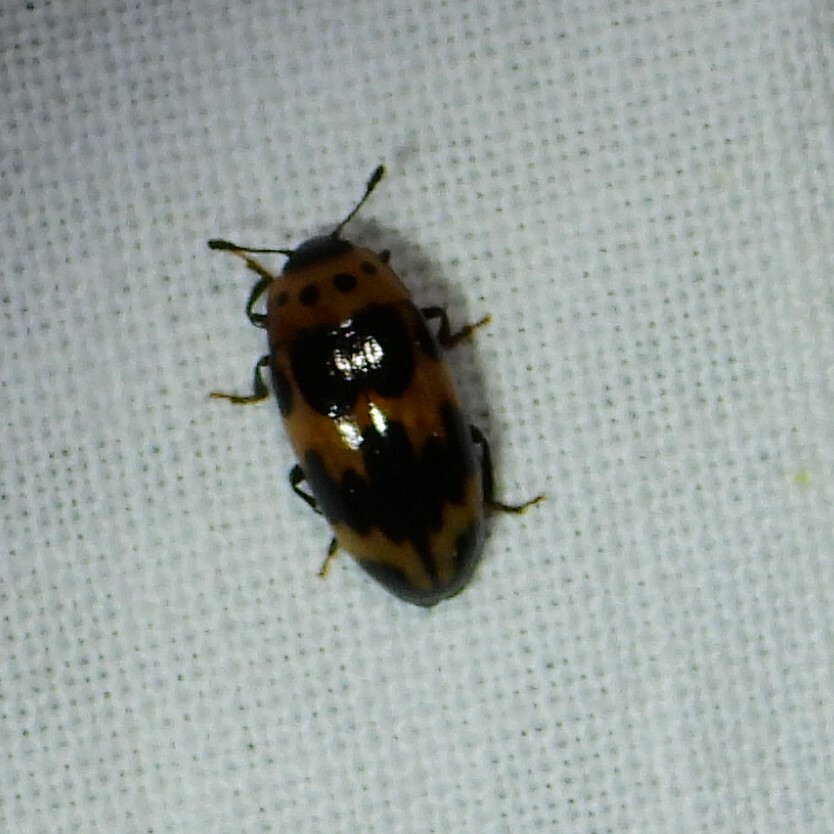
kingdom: Animalia
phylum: Arthropoda
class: Insecta
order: Coleoptera
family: Erotylidae
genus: Ischyrus
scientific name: Ischyrus quadripunctatus
